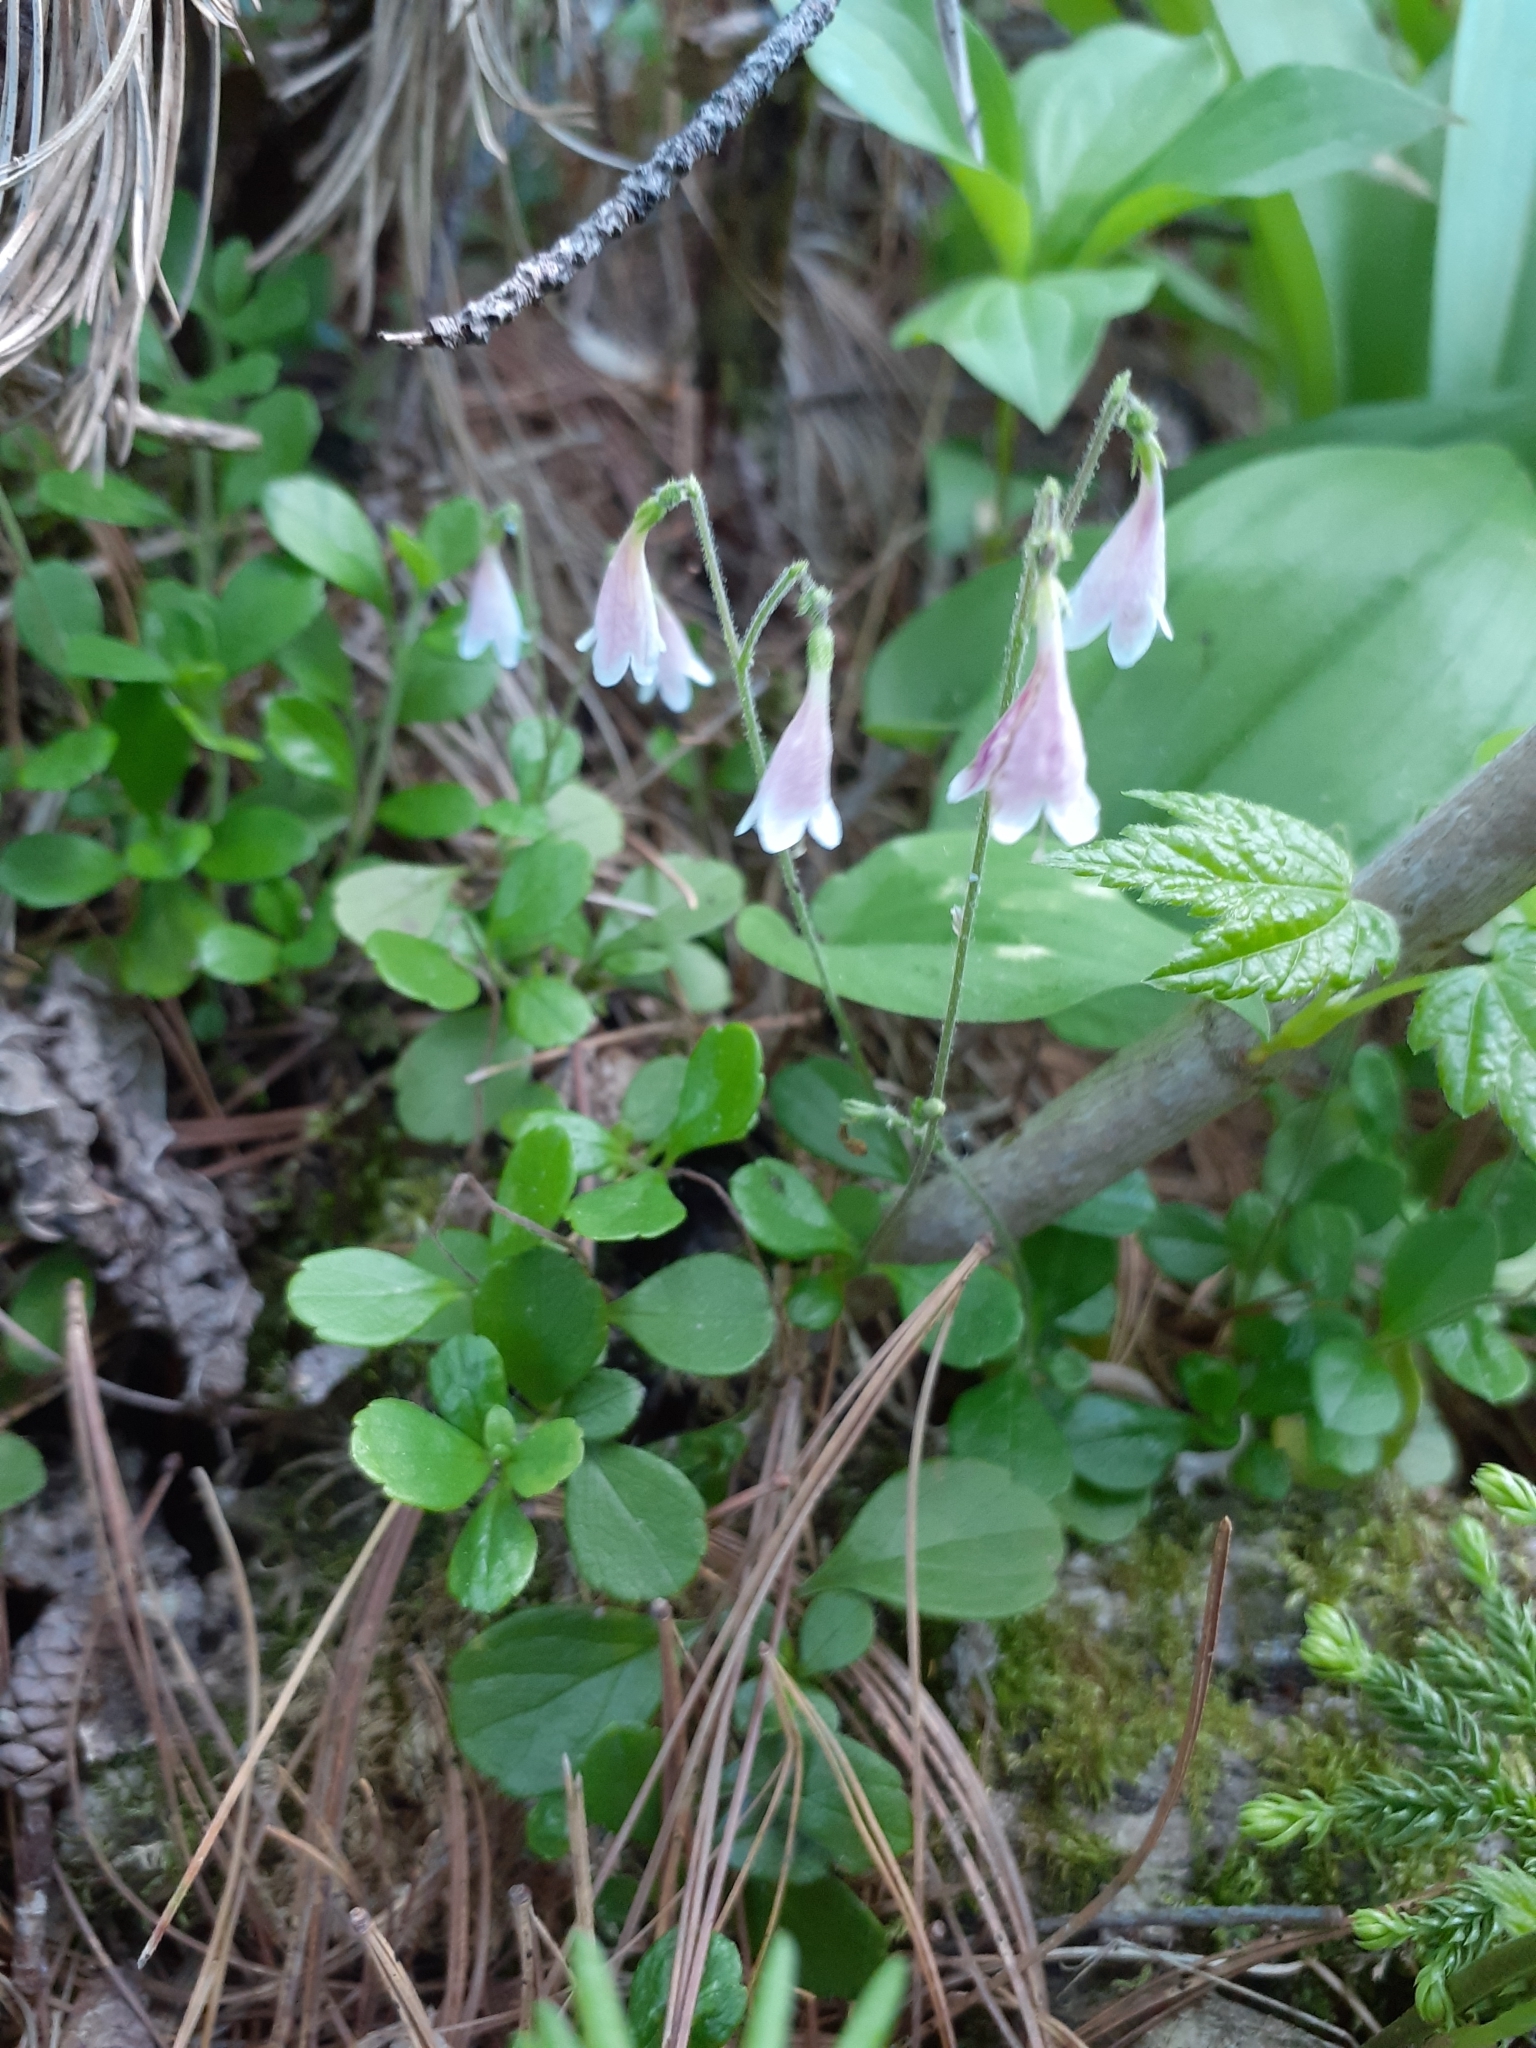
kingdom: Plantae
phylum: Tracheophyta
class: Magnoliopsida
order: Dipsacales
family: Caprifoliaceae
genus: Linnaea
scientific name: Linnaea borealis
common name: Twinflower
